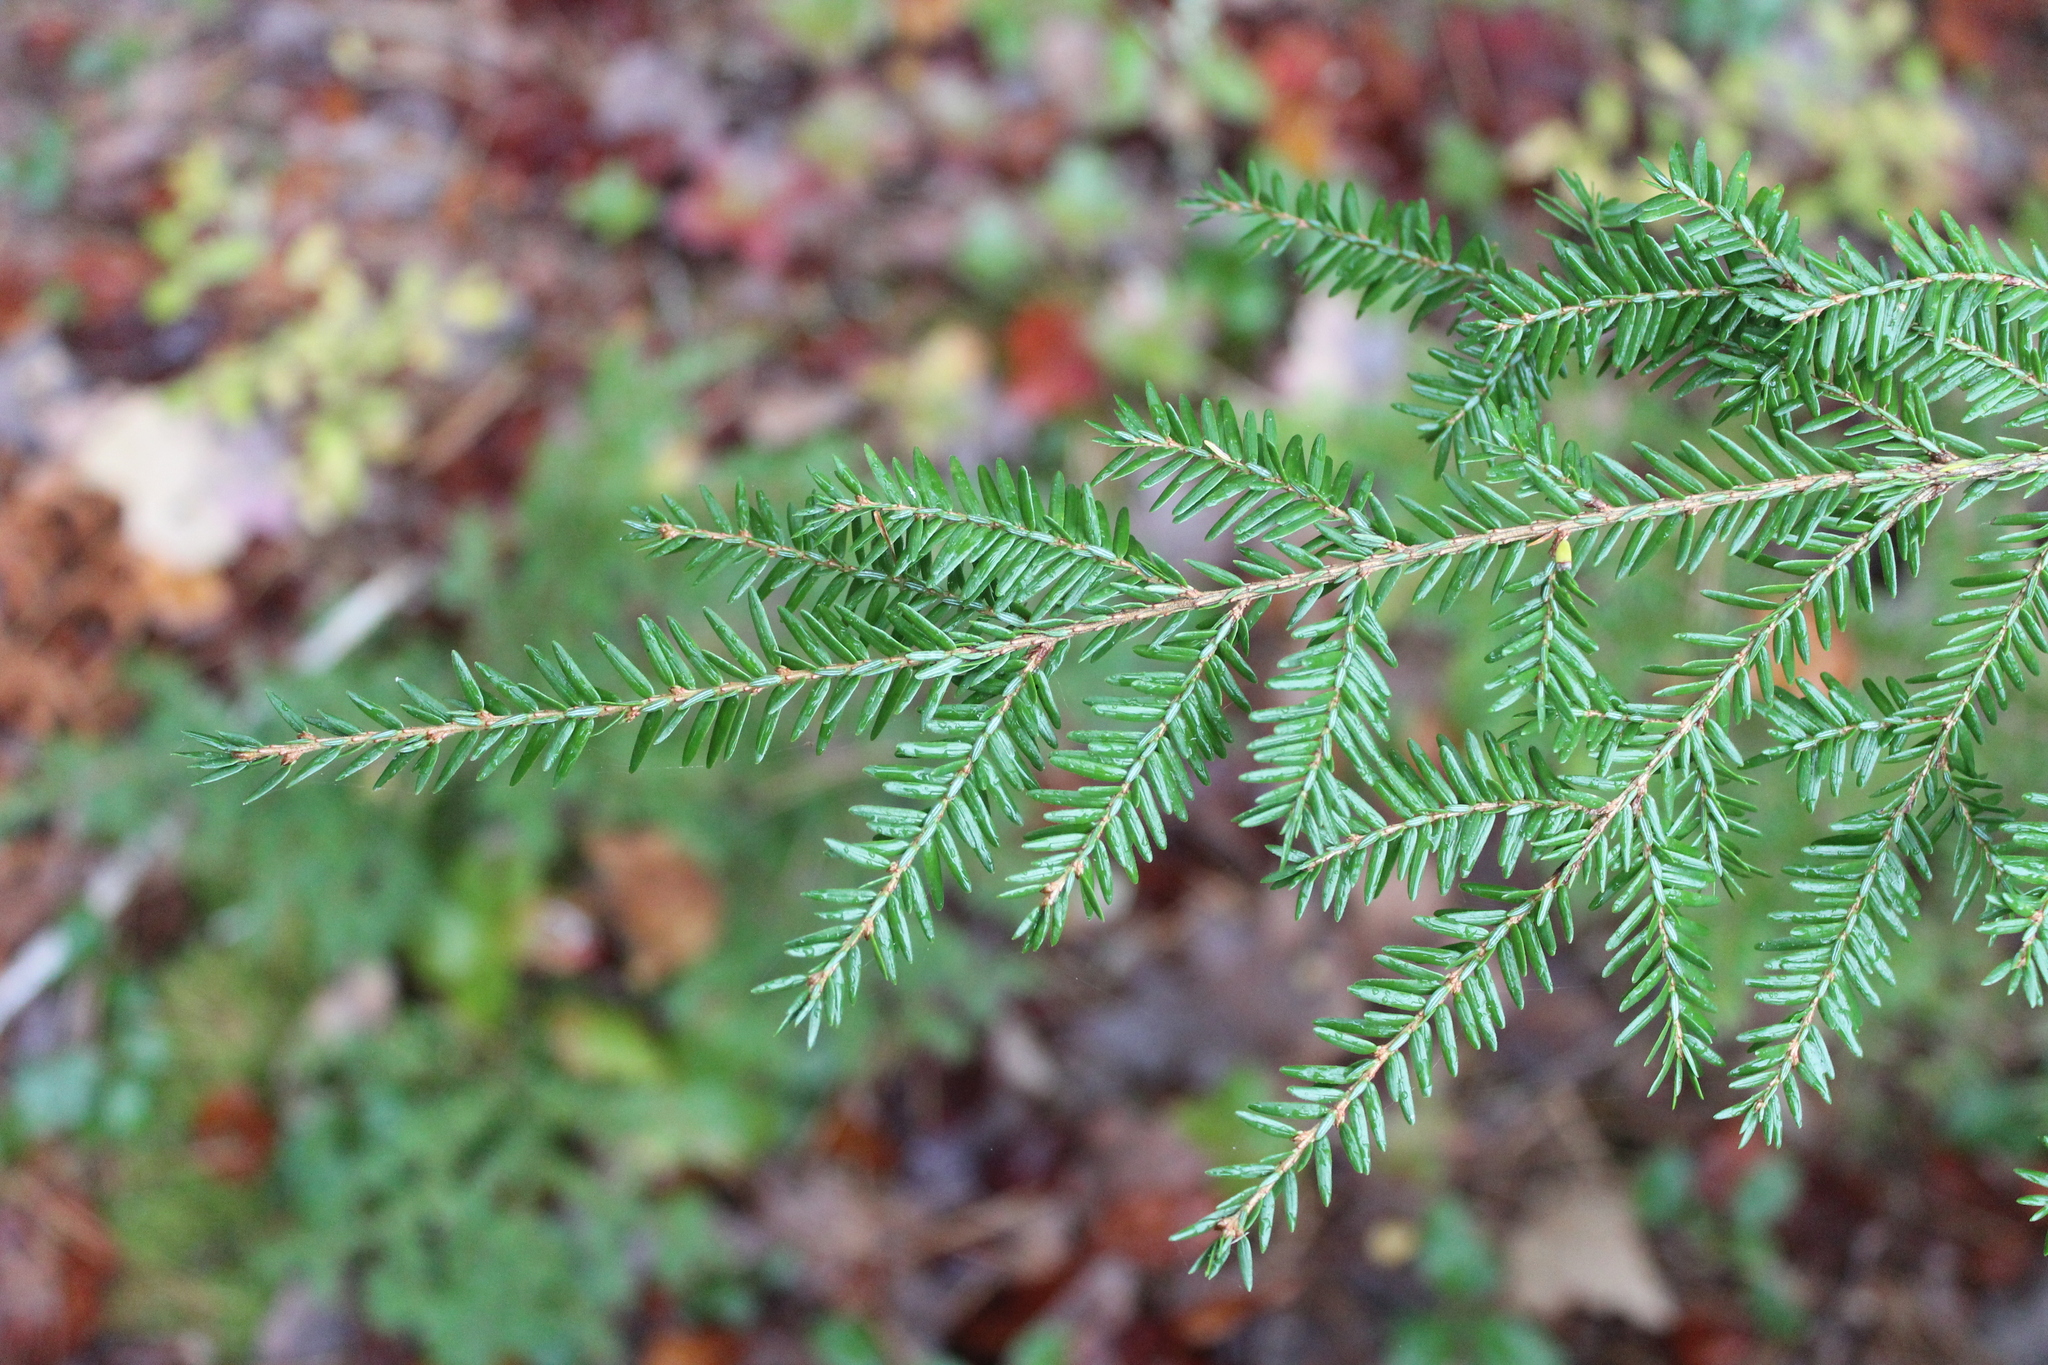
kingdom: Plantae
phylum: Tracheophyta
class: Pinopsida
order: Pinales
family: Pinaceae
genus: Tsuga
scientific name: Tsuga canadensis
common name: Eastern hemlock
